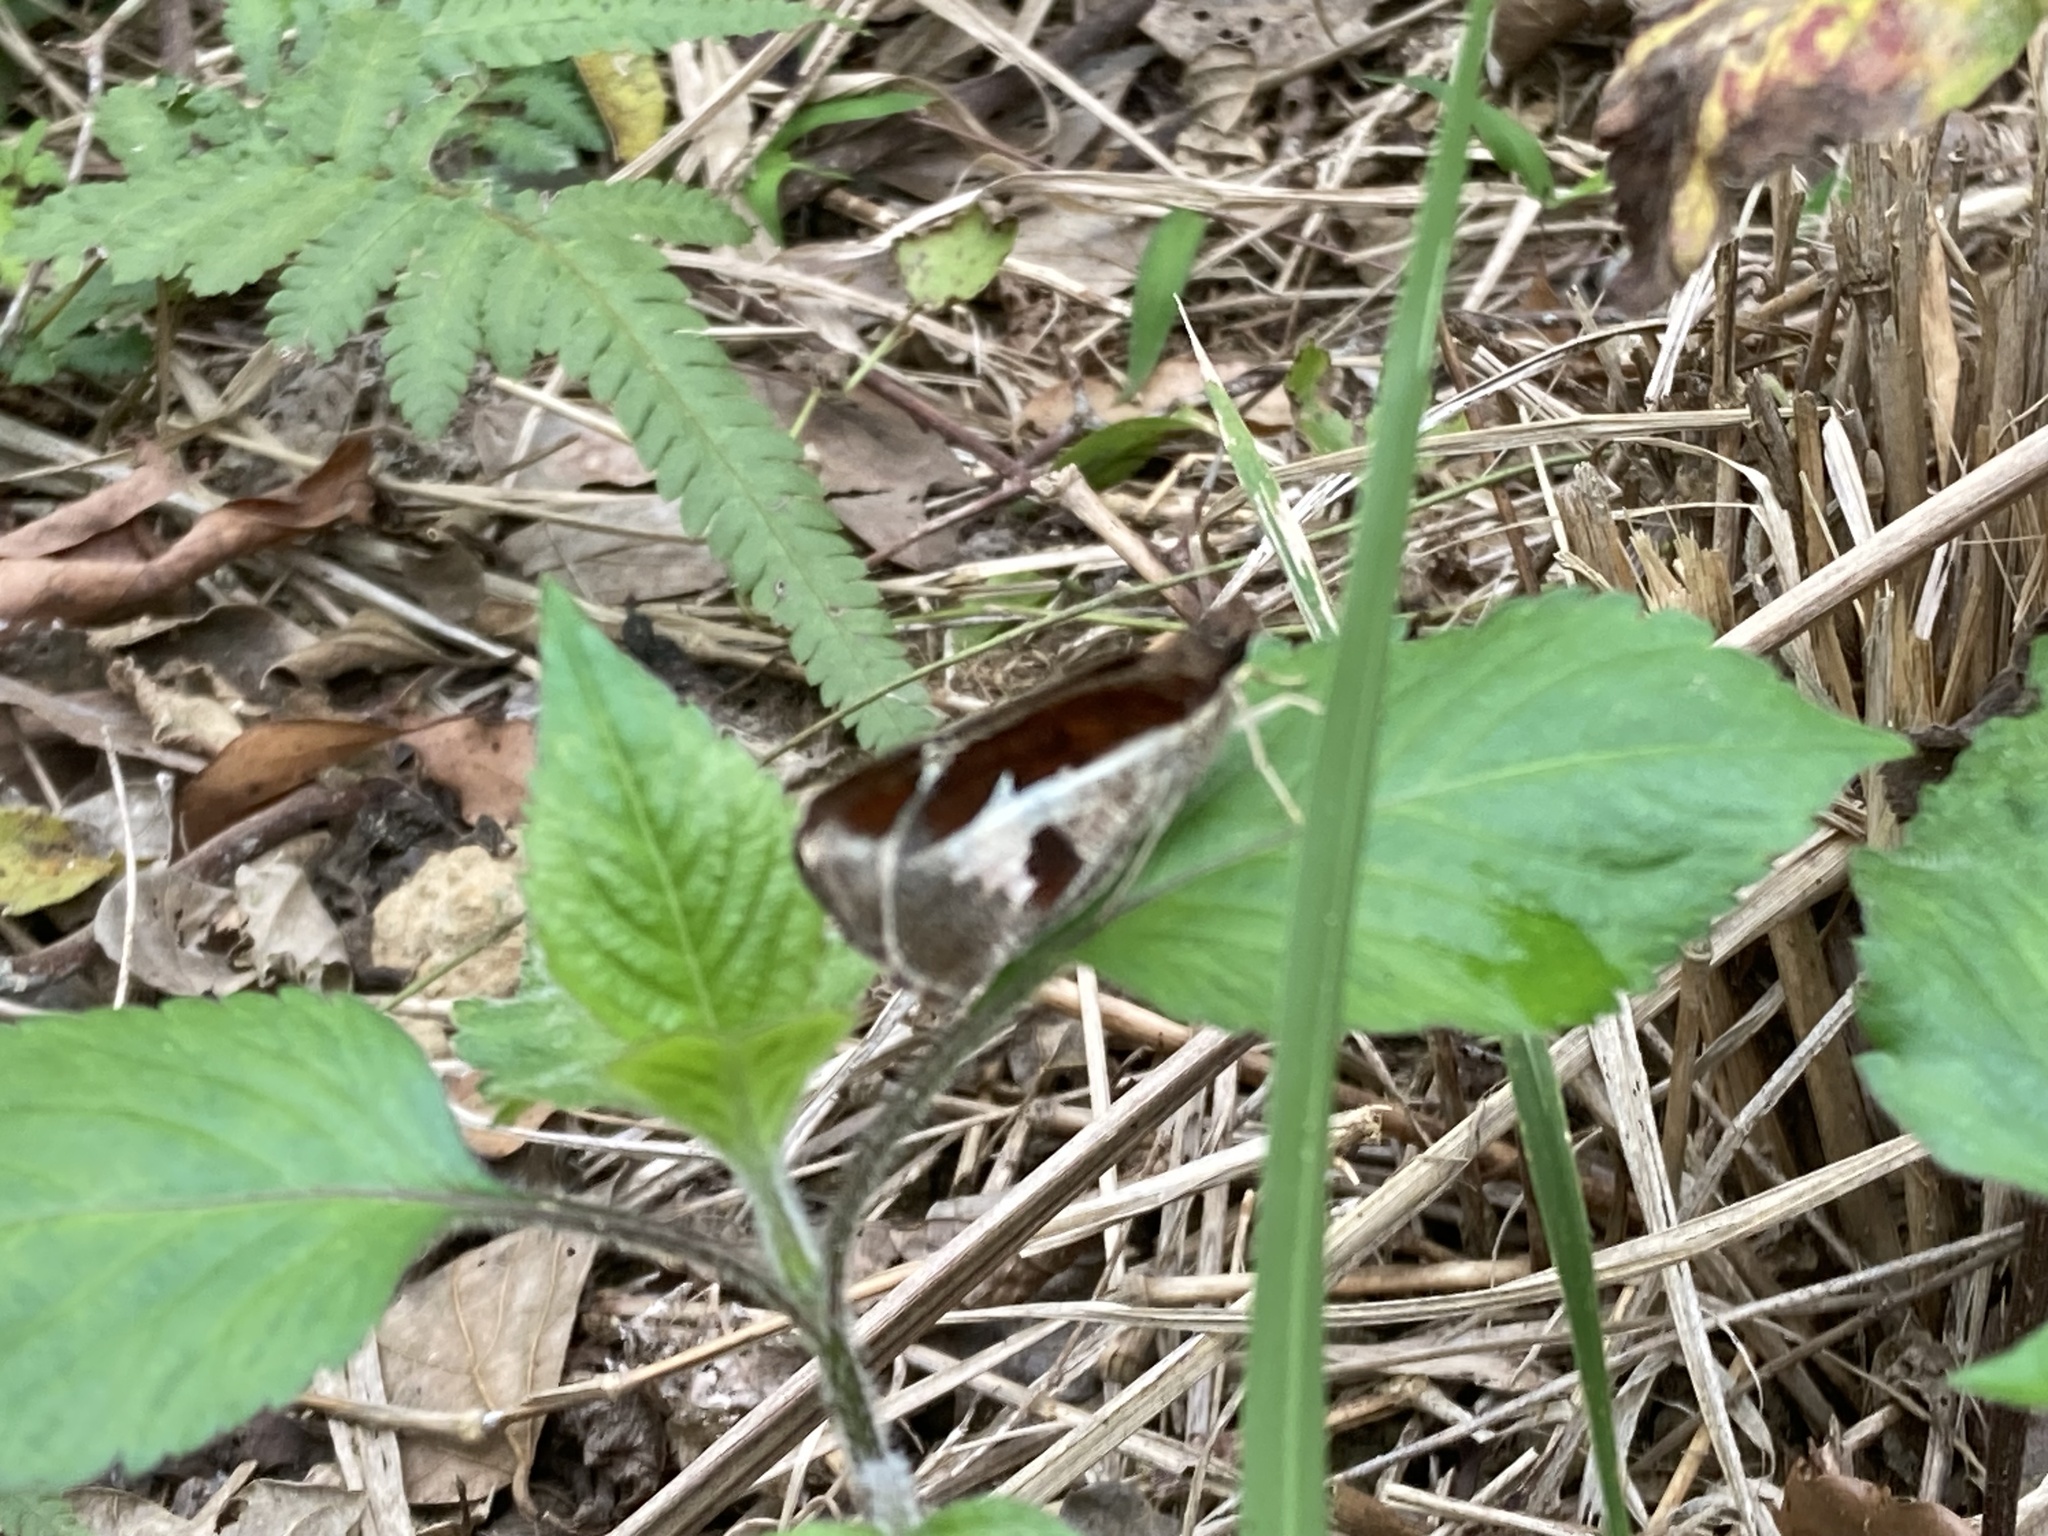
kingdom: Animalia
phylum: Arthropoda
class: Insecta
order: Lepidoptera
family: Hesperiidae
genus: Udaspes
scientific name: Udaspes folus
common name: Grass demon
